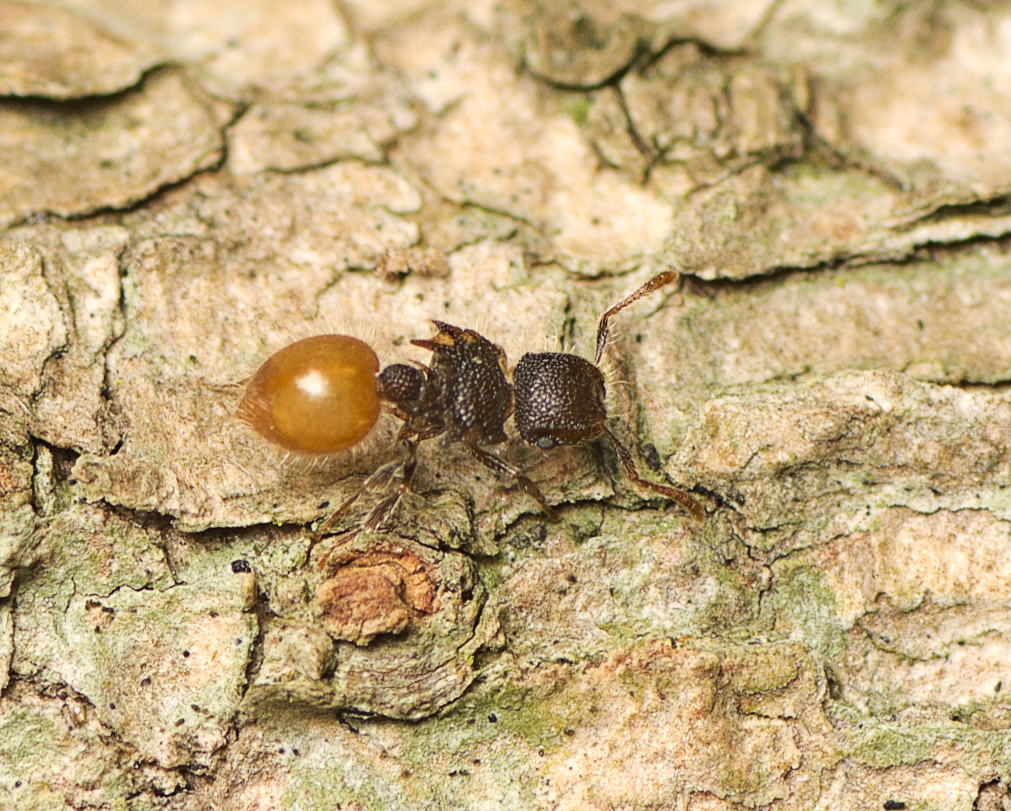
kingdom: Animalia
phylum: Arthropoda
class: Insecta
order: Hymenoptera
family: Formicidae
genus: Meranoplus
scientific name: Meranoplus hirsutus
